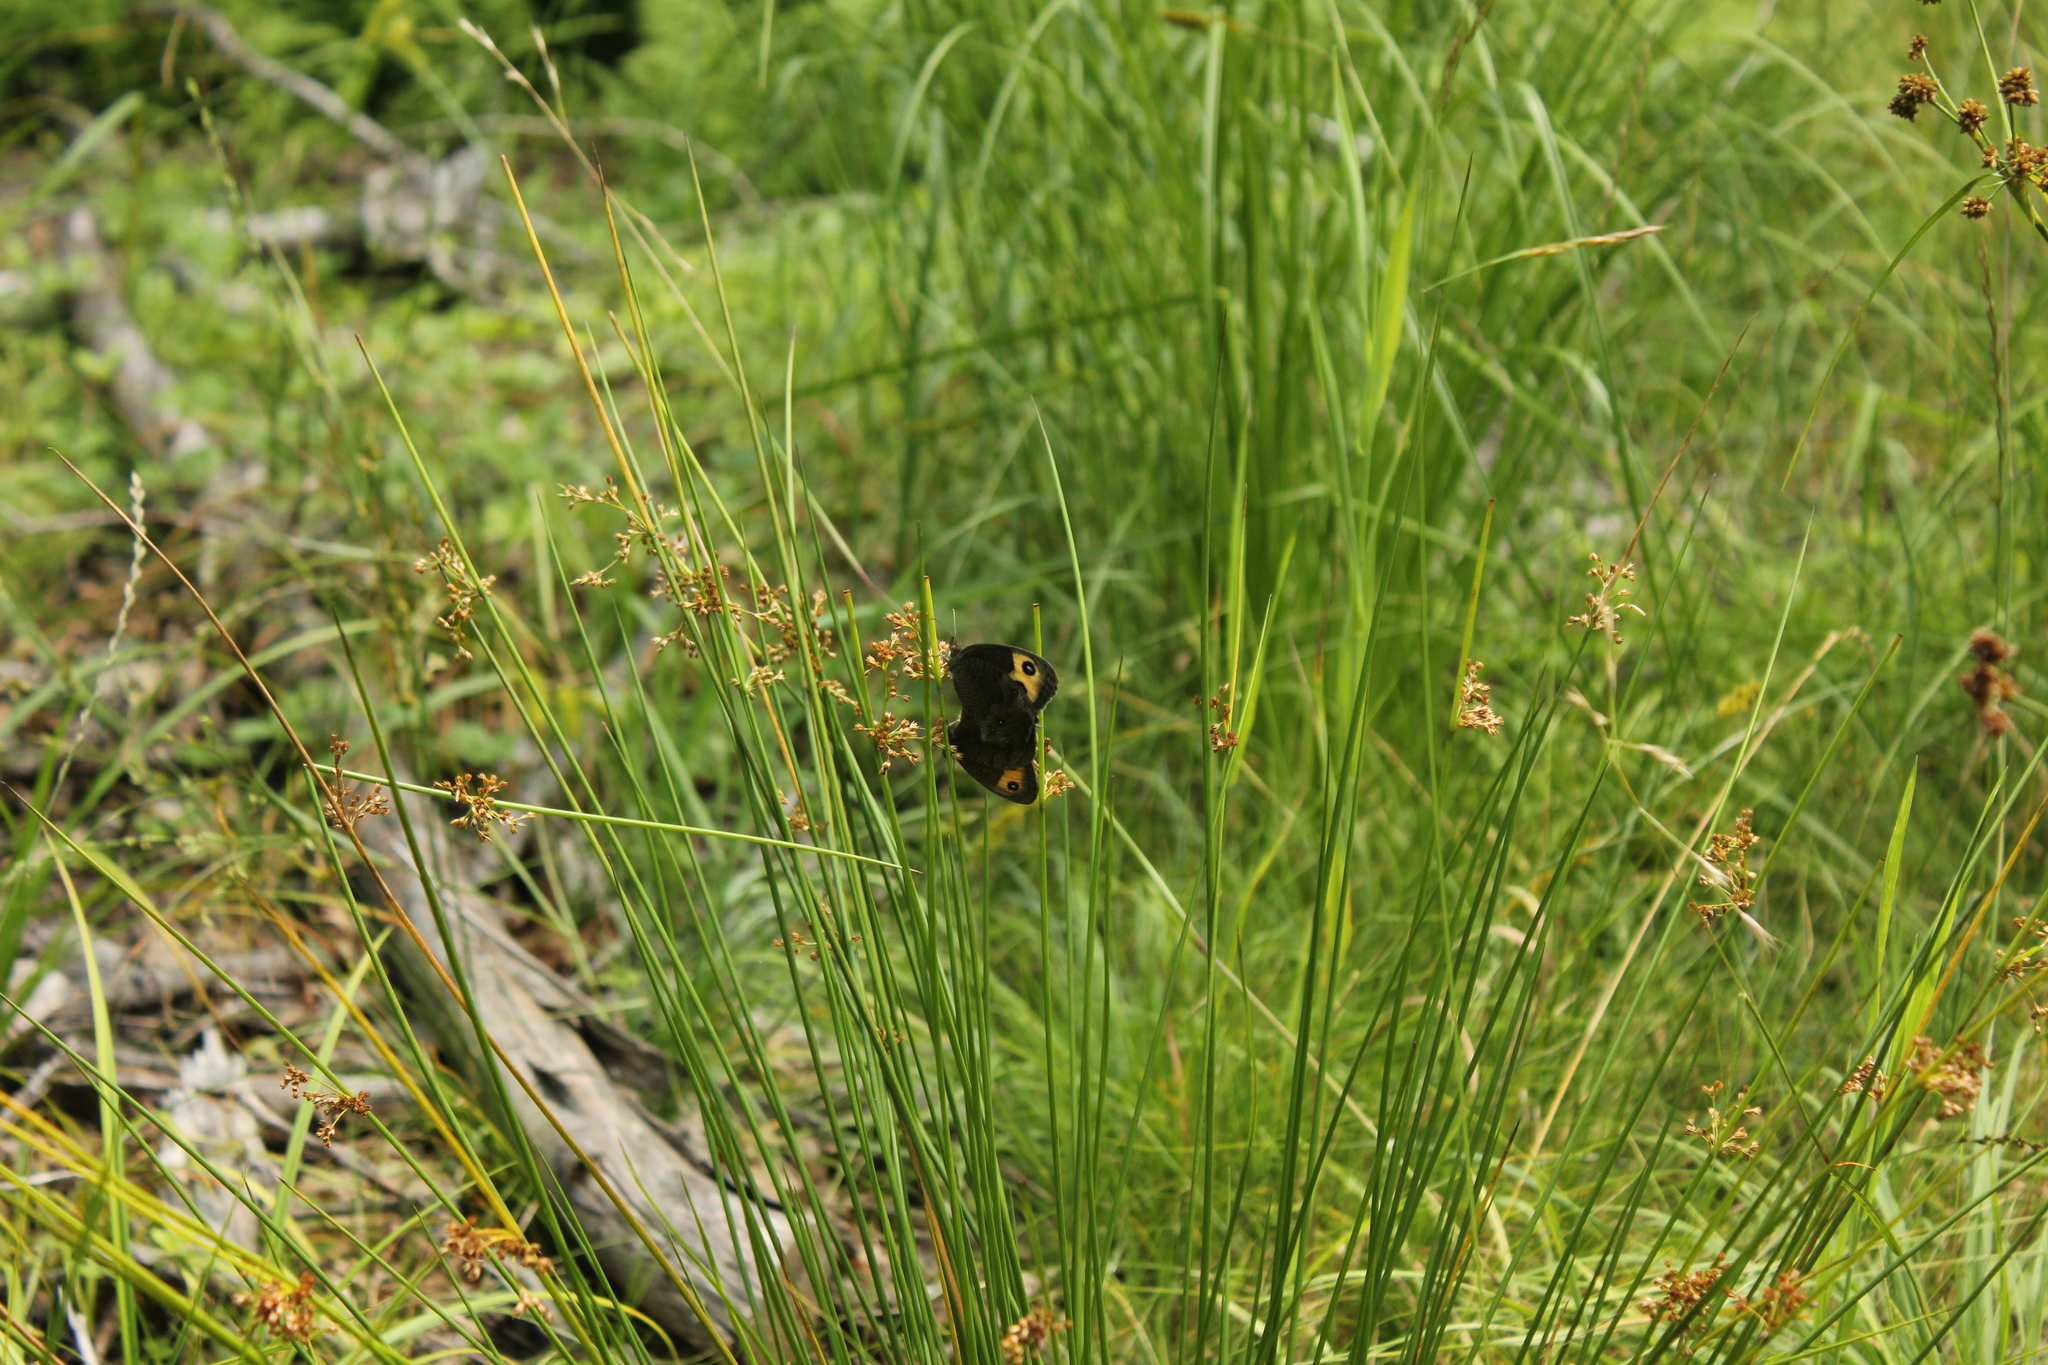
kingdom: Animalia
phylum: Arthropoda
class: Insecta
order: Lepidoptera
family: Nymphalidae
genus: Cercyonis
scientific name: Cercyonis pegala
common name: Common wood-nymph
